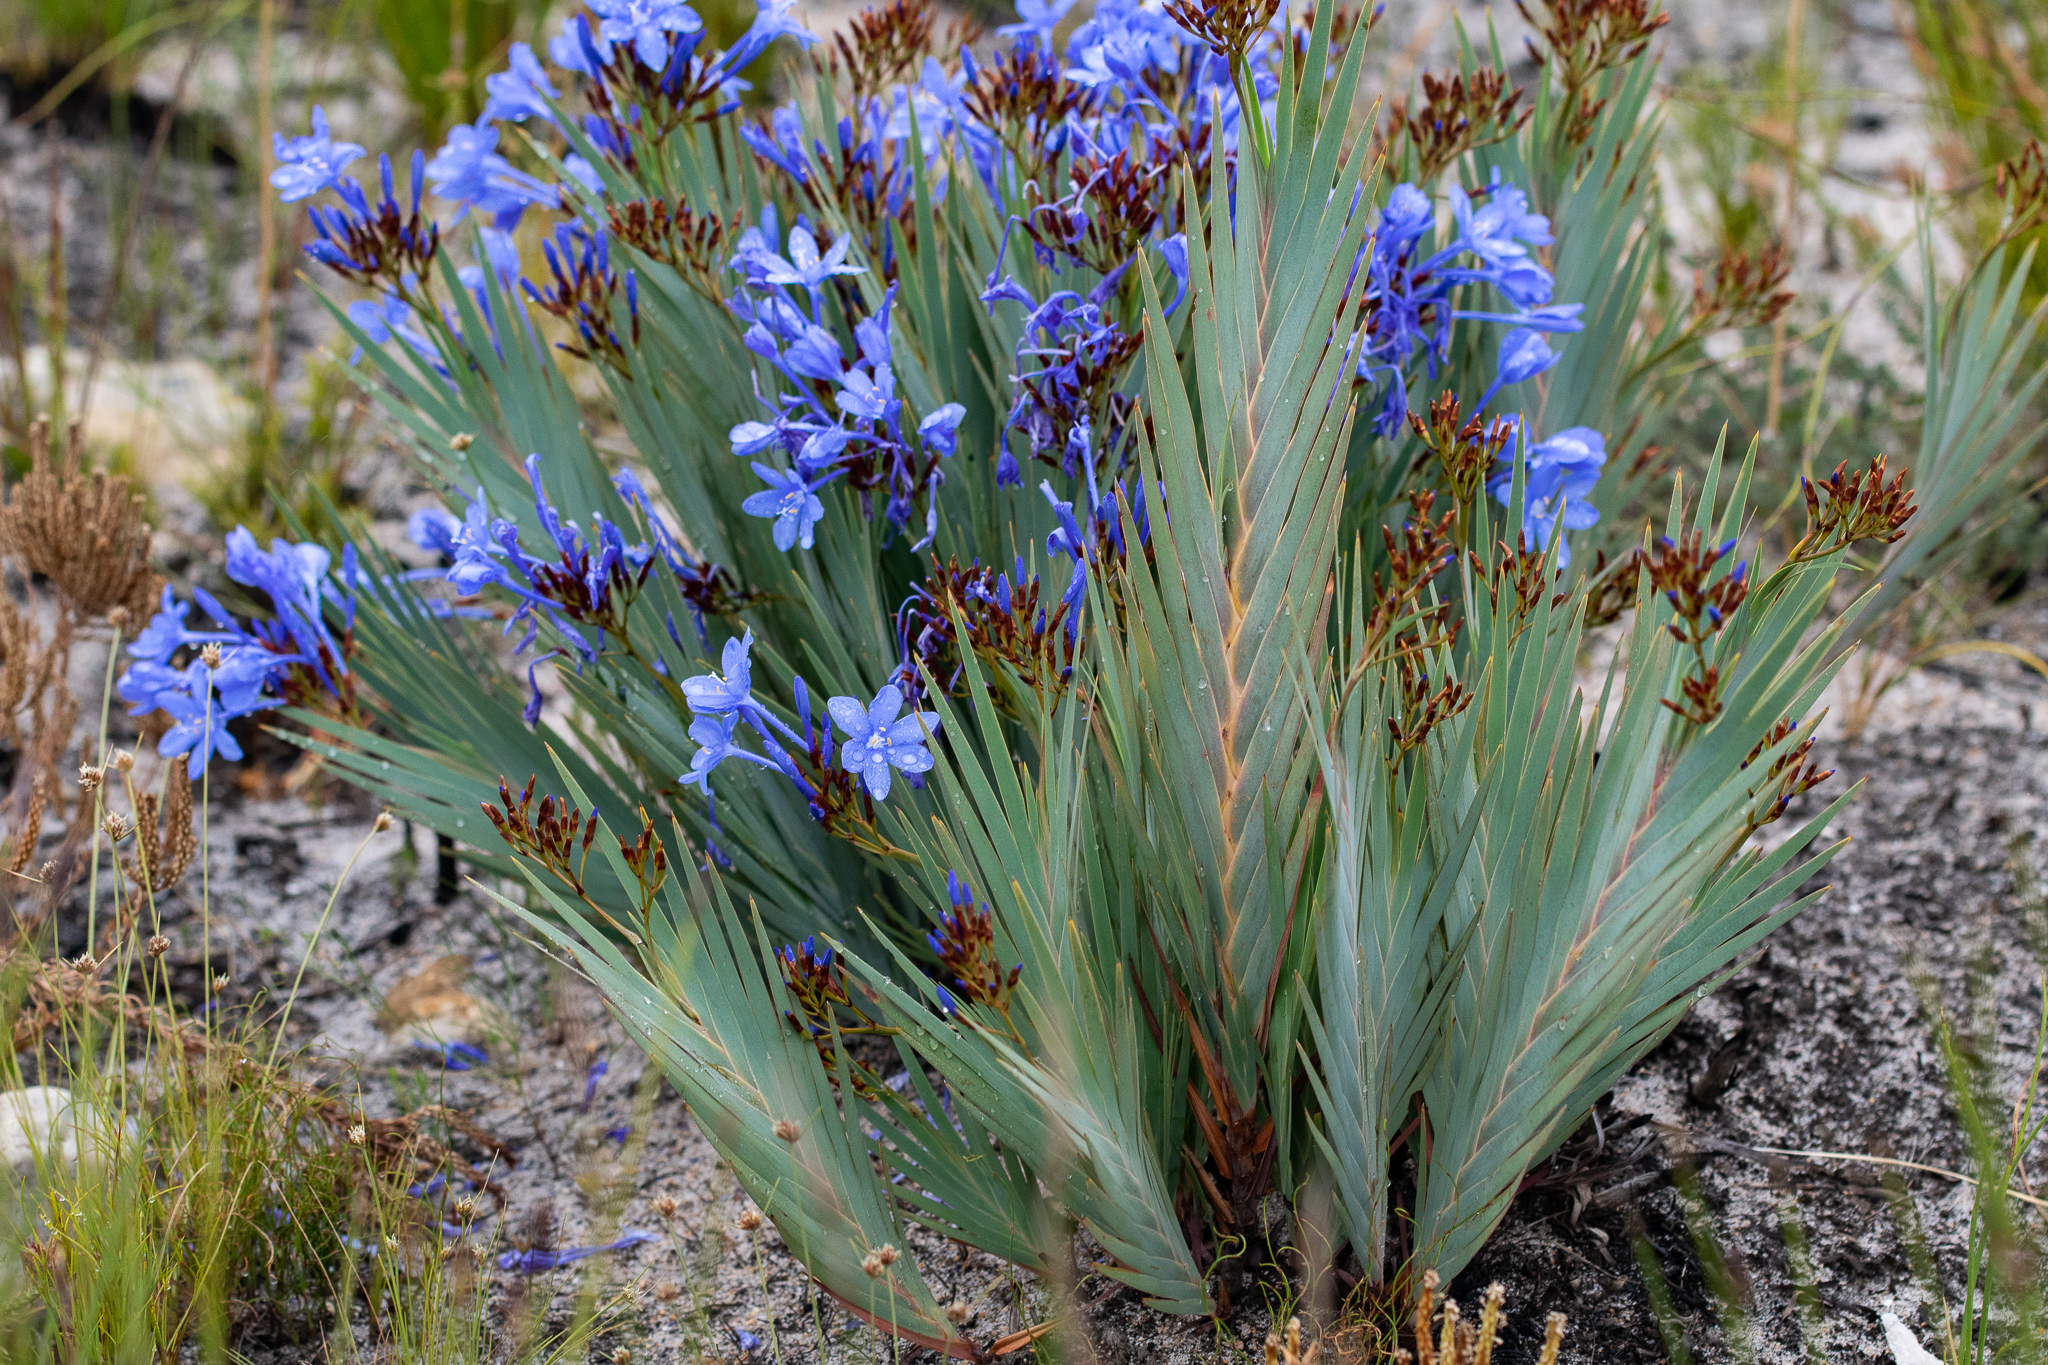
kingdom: Plantae
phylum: Tracheophyta
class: Liliopsida
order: Asparagales
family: Iridaceae
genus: Nivenia
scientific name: Nivenia stokoei
